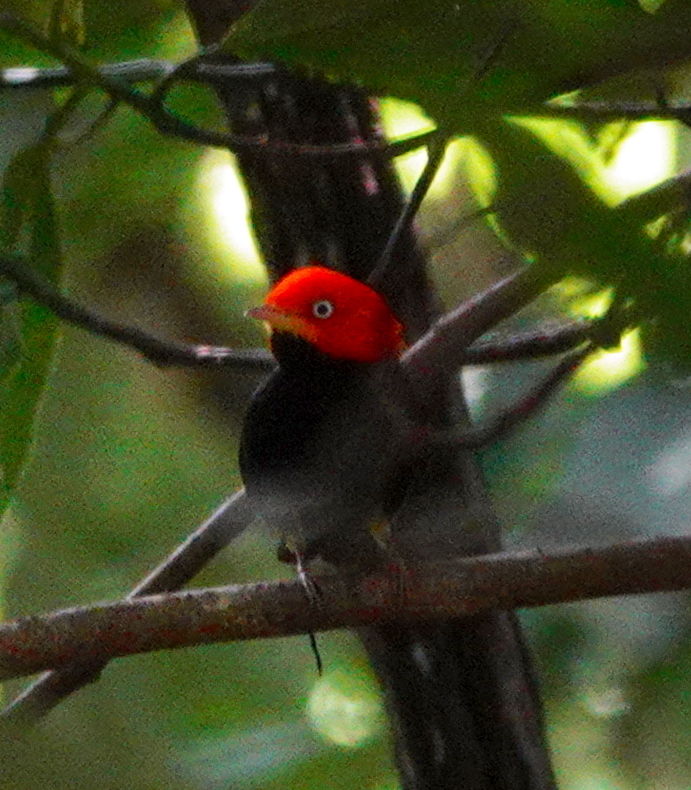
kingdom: Animalia
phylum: Chordata
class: Aves
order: Passeriformes
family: Pipridae
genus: Pipra
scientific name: Pipra mentalis
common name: Red-capped manakin
